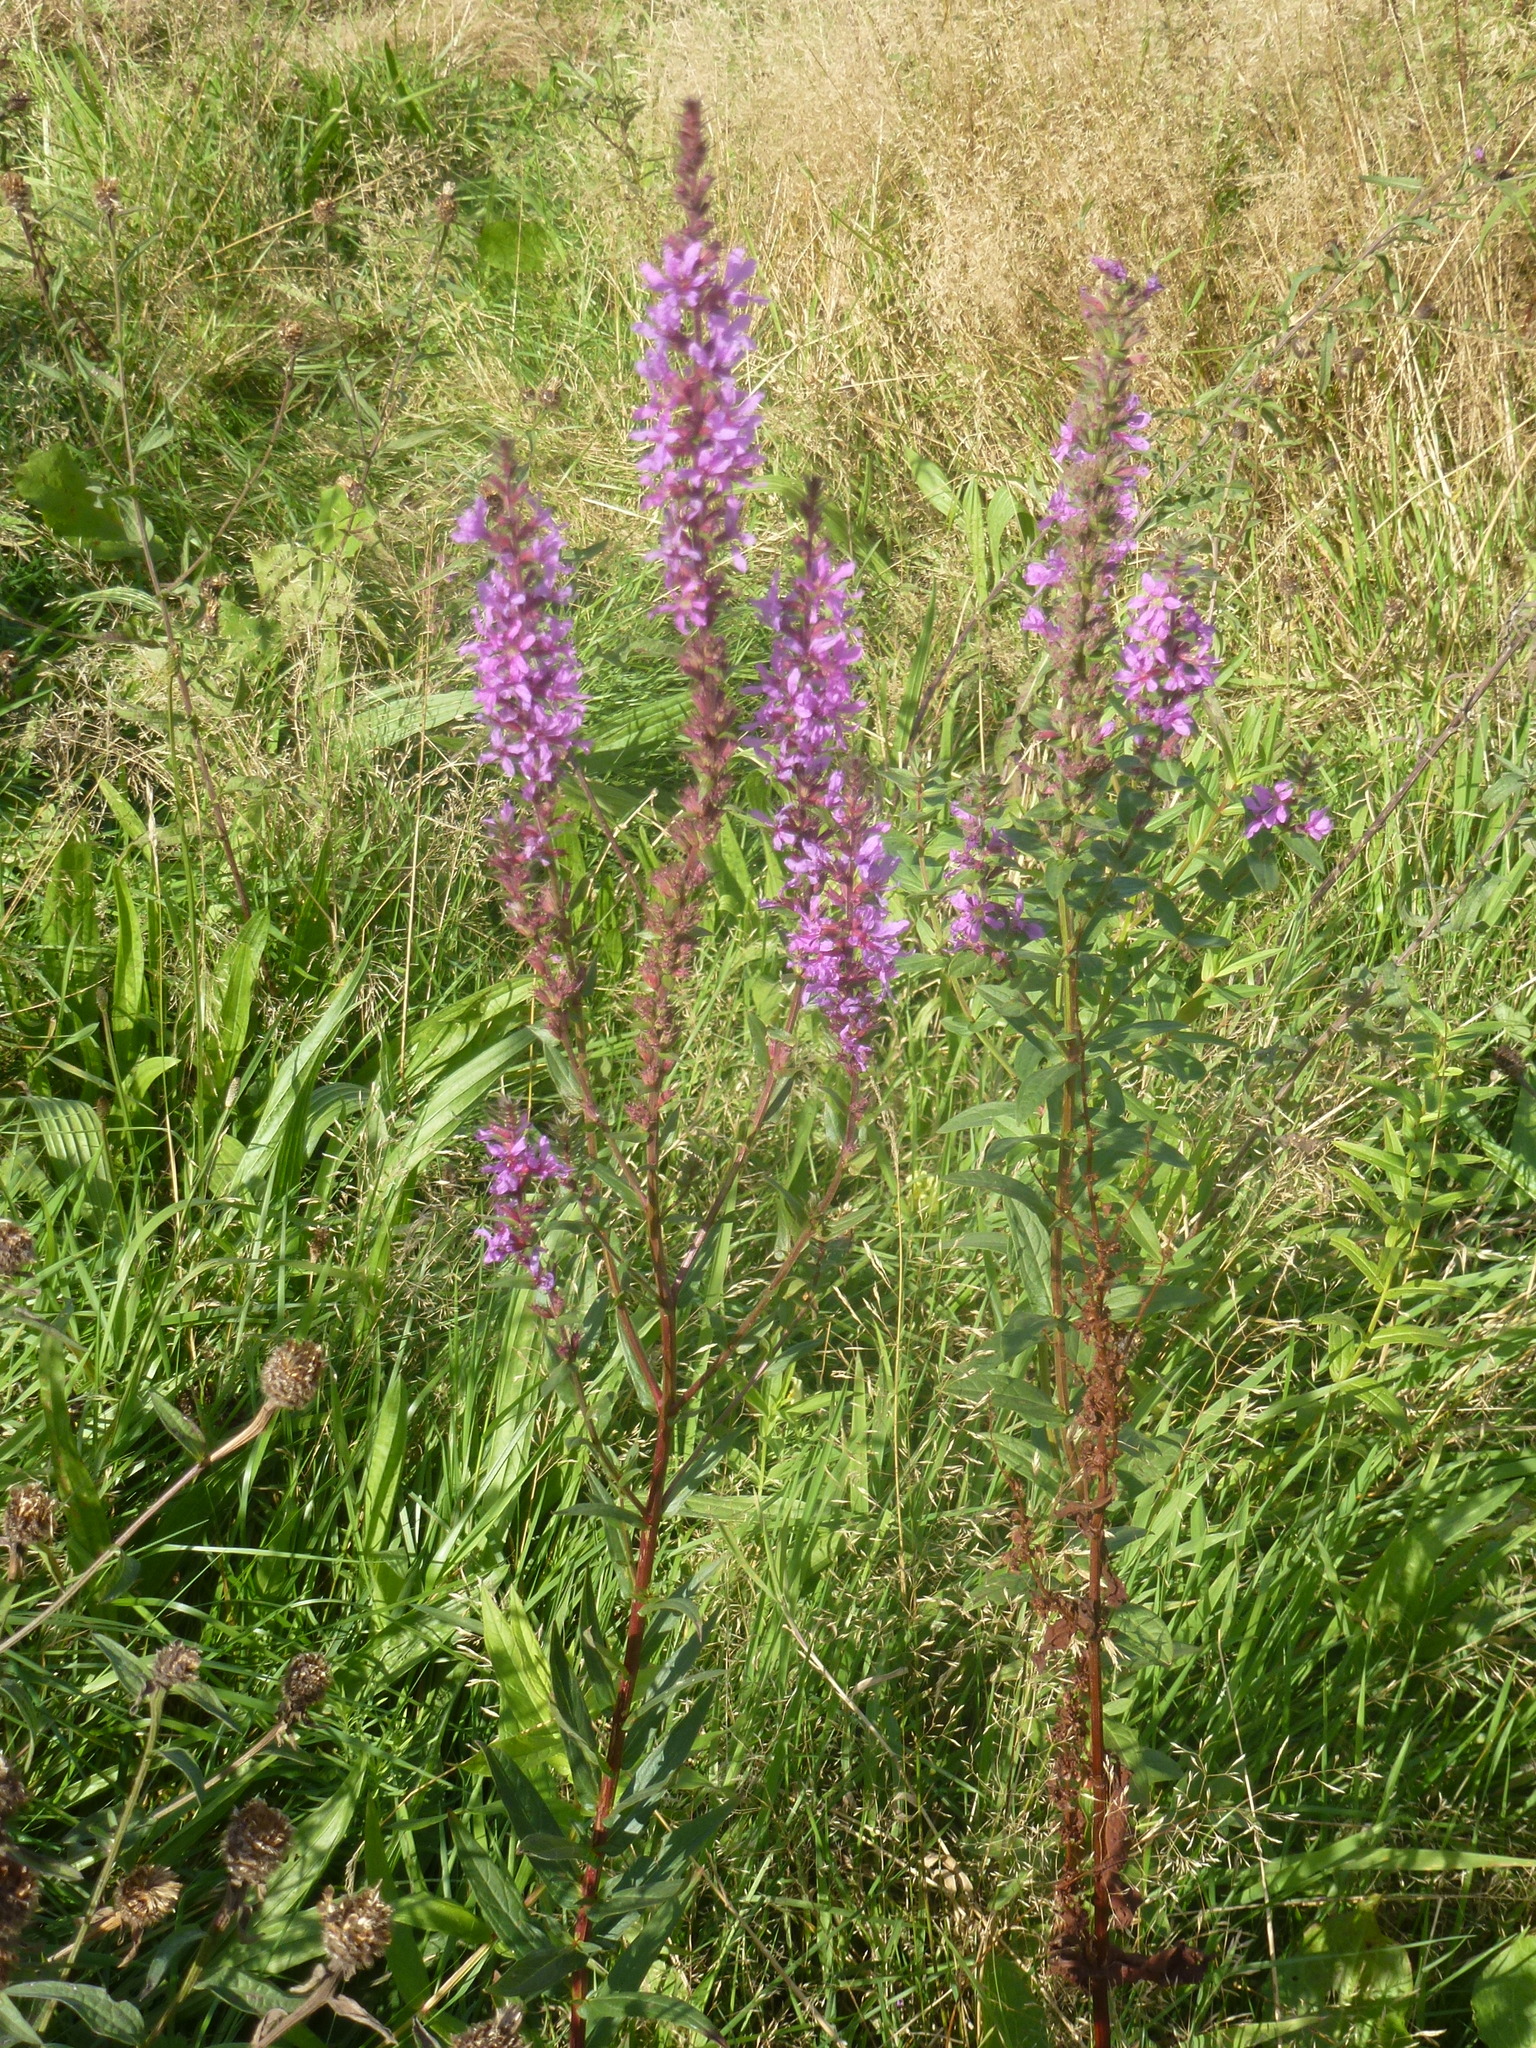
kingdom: Plantae
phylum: Tracheophyta
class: Magnoliopsida
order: Myrtales
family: Lythraceae
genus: Lythrum
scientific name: Lythrum salicaria
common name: Purple loosestrife
